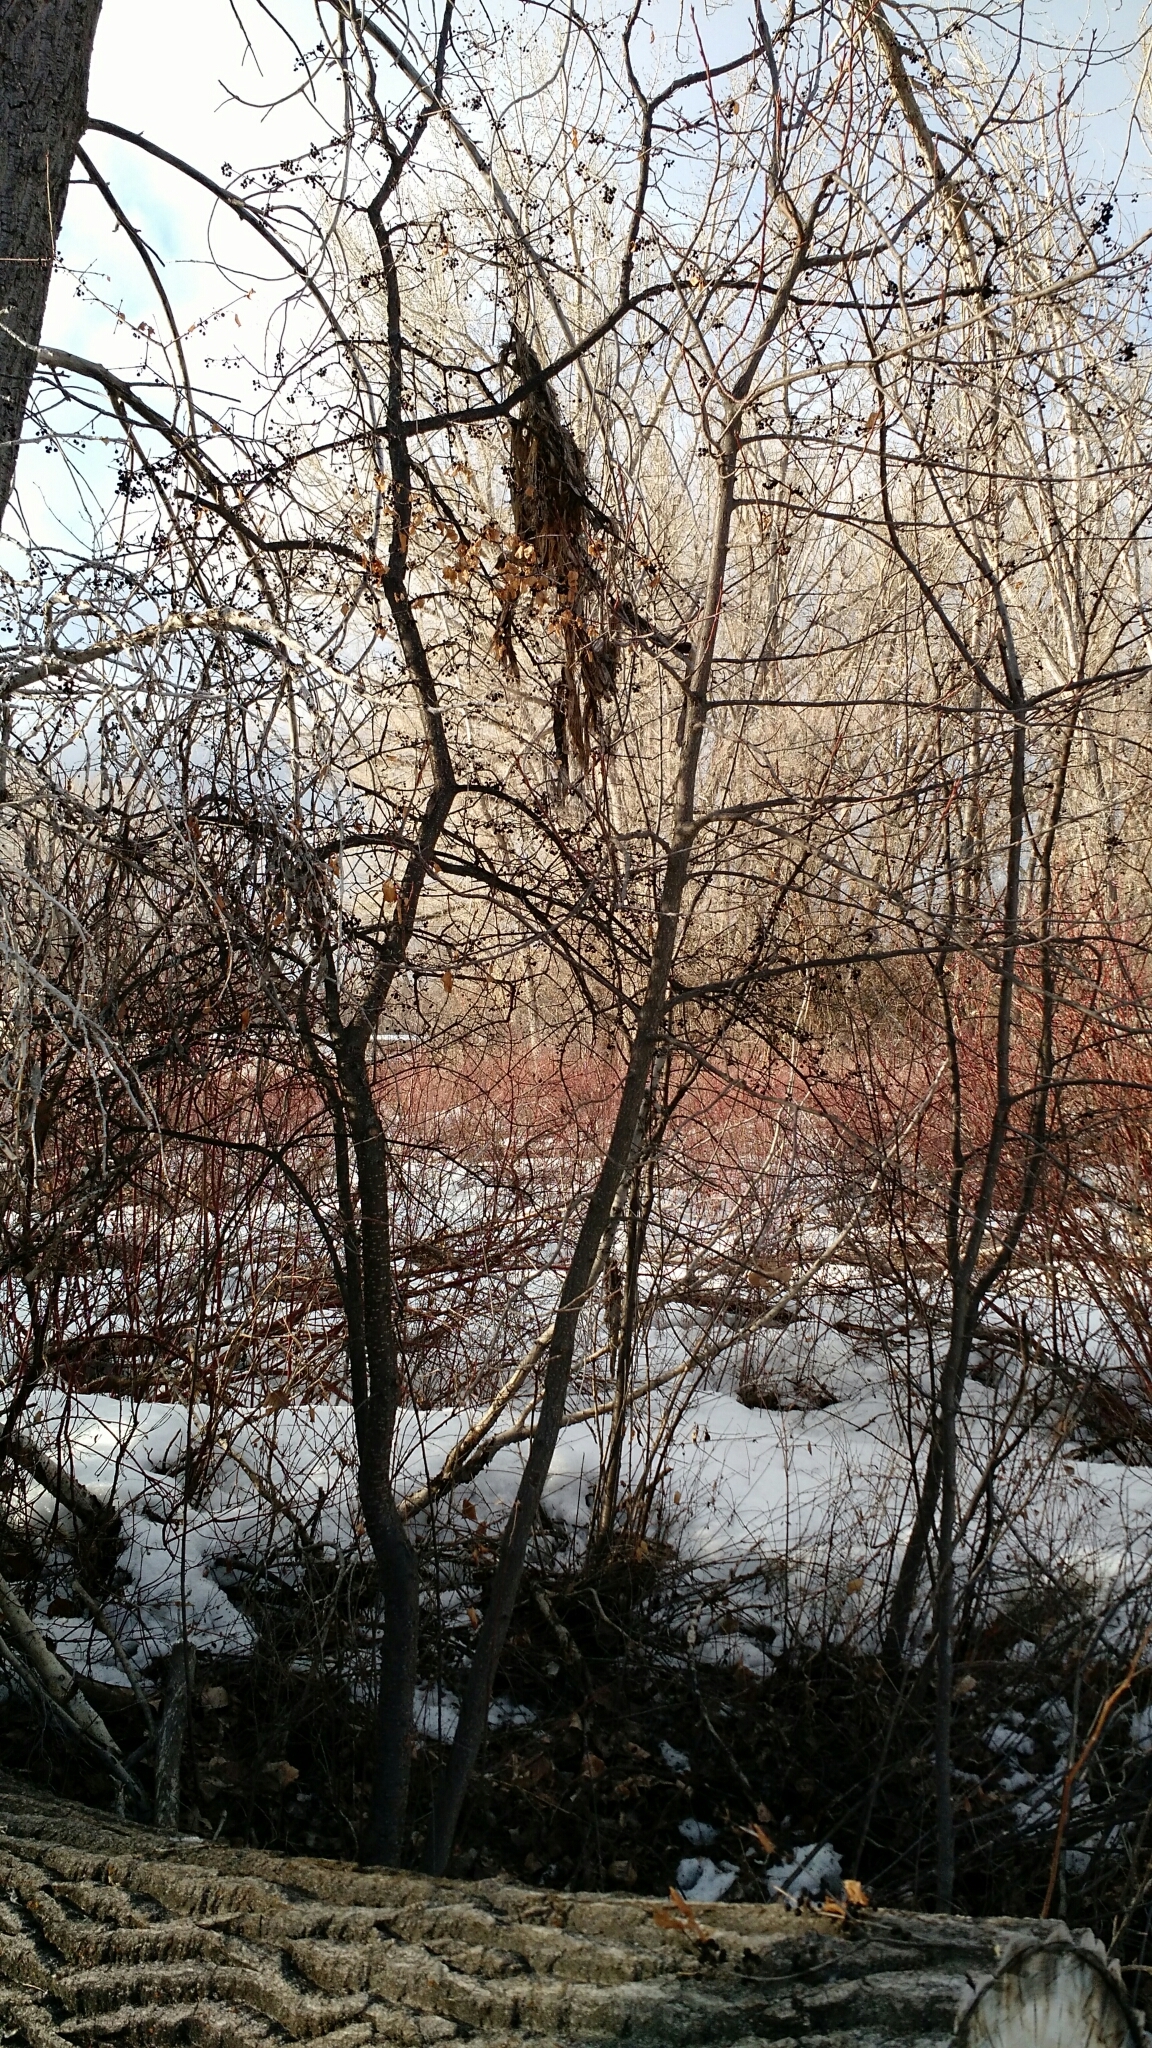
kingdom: Plantae
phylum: Tracheophyta
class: Magnoliopsida
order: Rosales
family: Rosaceae
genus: Aronia
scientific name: Aronia melanocarpa
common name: Black chokeberry
